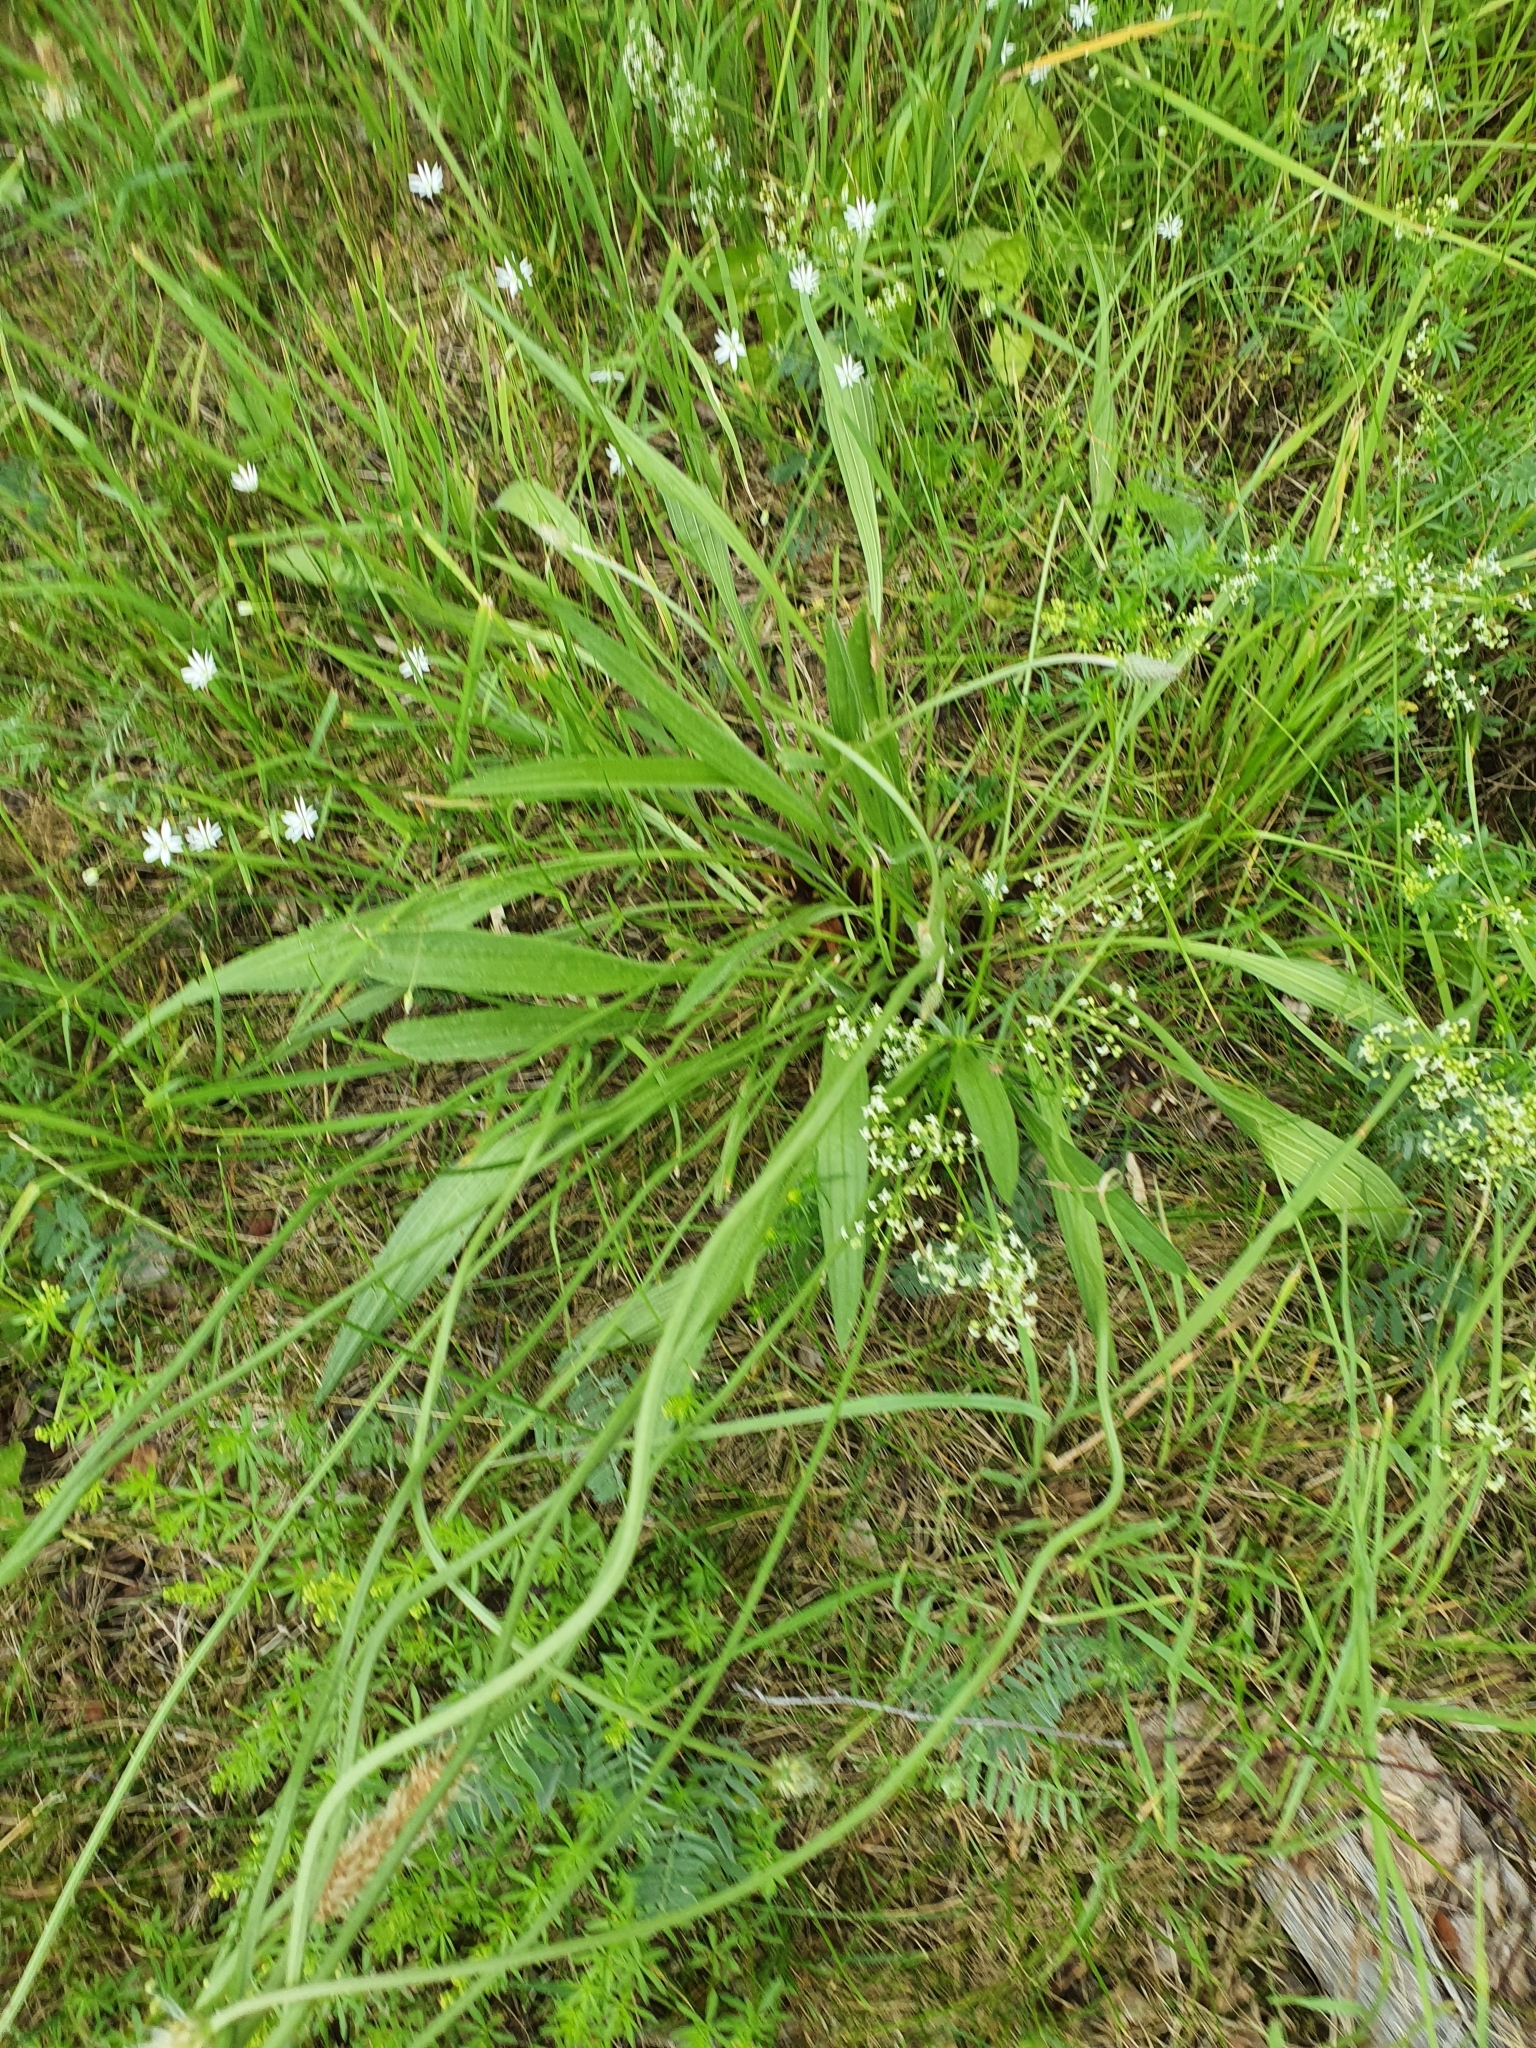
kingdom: Plantae
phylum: Tracheophyta
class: Magnoliopsida
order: Lamiales
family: Plantaginaceae
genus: Plantago
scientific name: Plantago lanceolata
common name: Ribwort plantain
